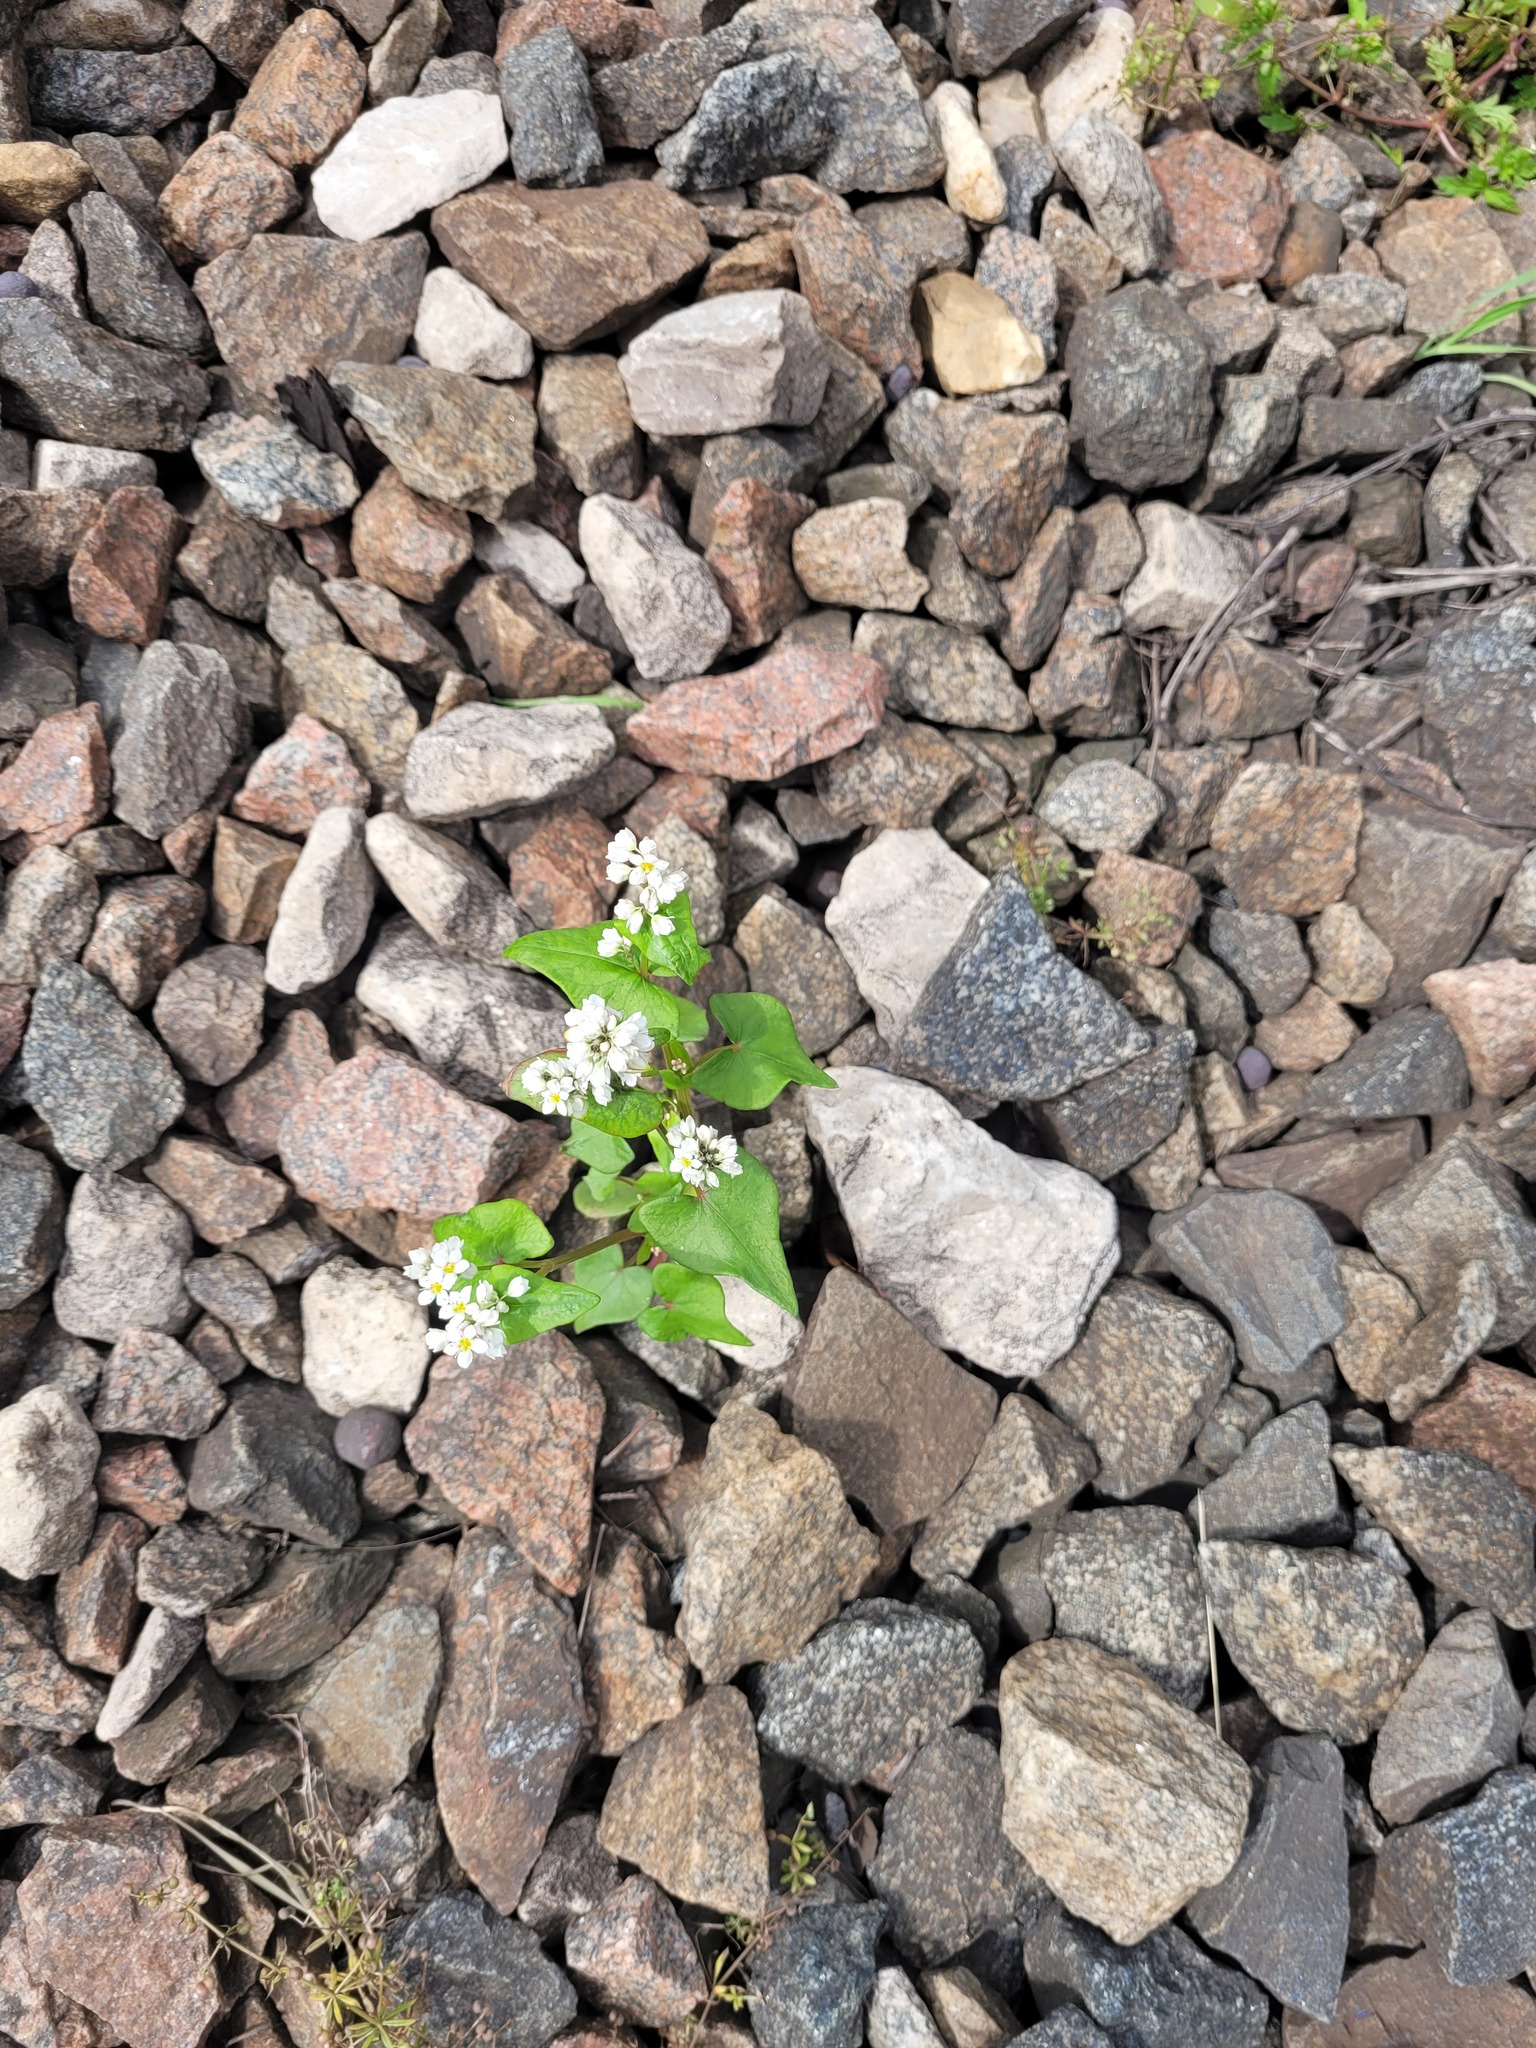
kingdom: Plantae
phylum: Tracheophyta
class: Magnoliopsida
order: Caryophyllales
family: Polygonaceae
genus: Fagopyrum
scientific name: Fagopyrum esculentum
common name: Buckwheat
